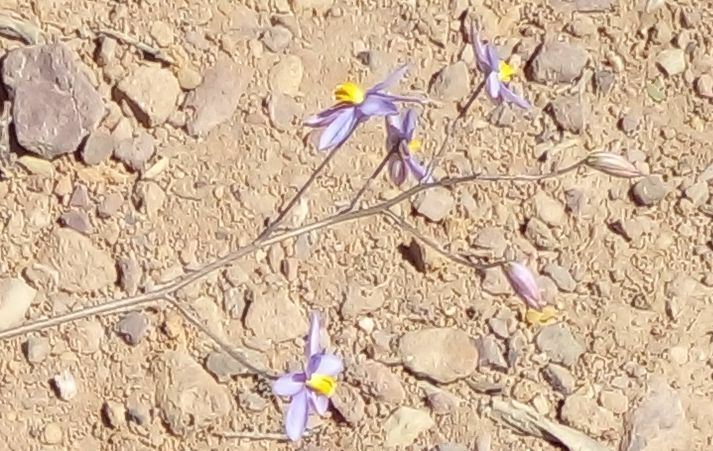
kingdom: Plantae
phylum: Tracheophyta
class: Liliopsida
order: Asparagales
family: Tecophilaeaceae
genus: Cyanella
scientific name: Cyanella hyacinthoides
